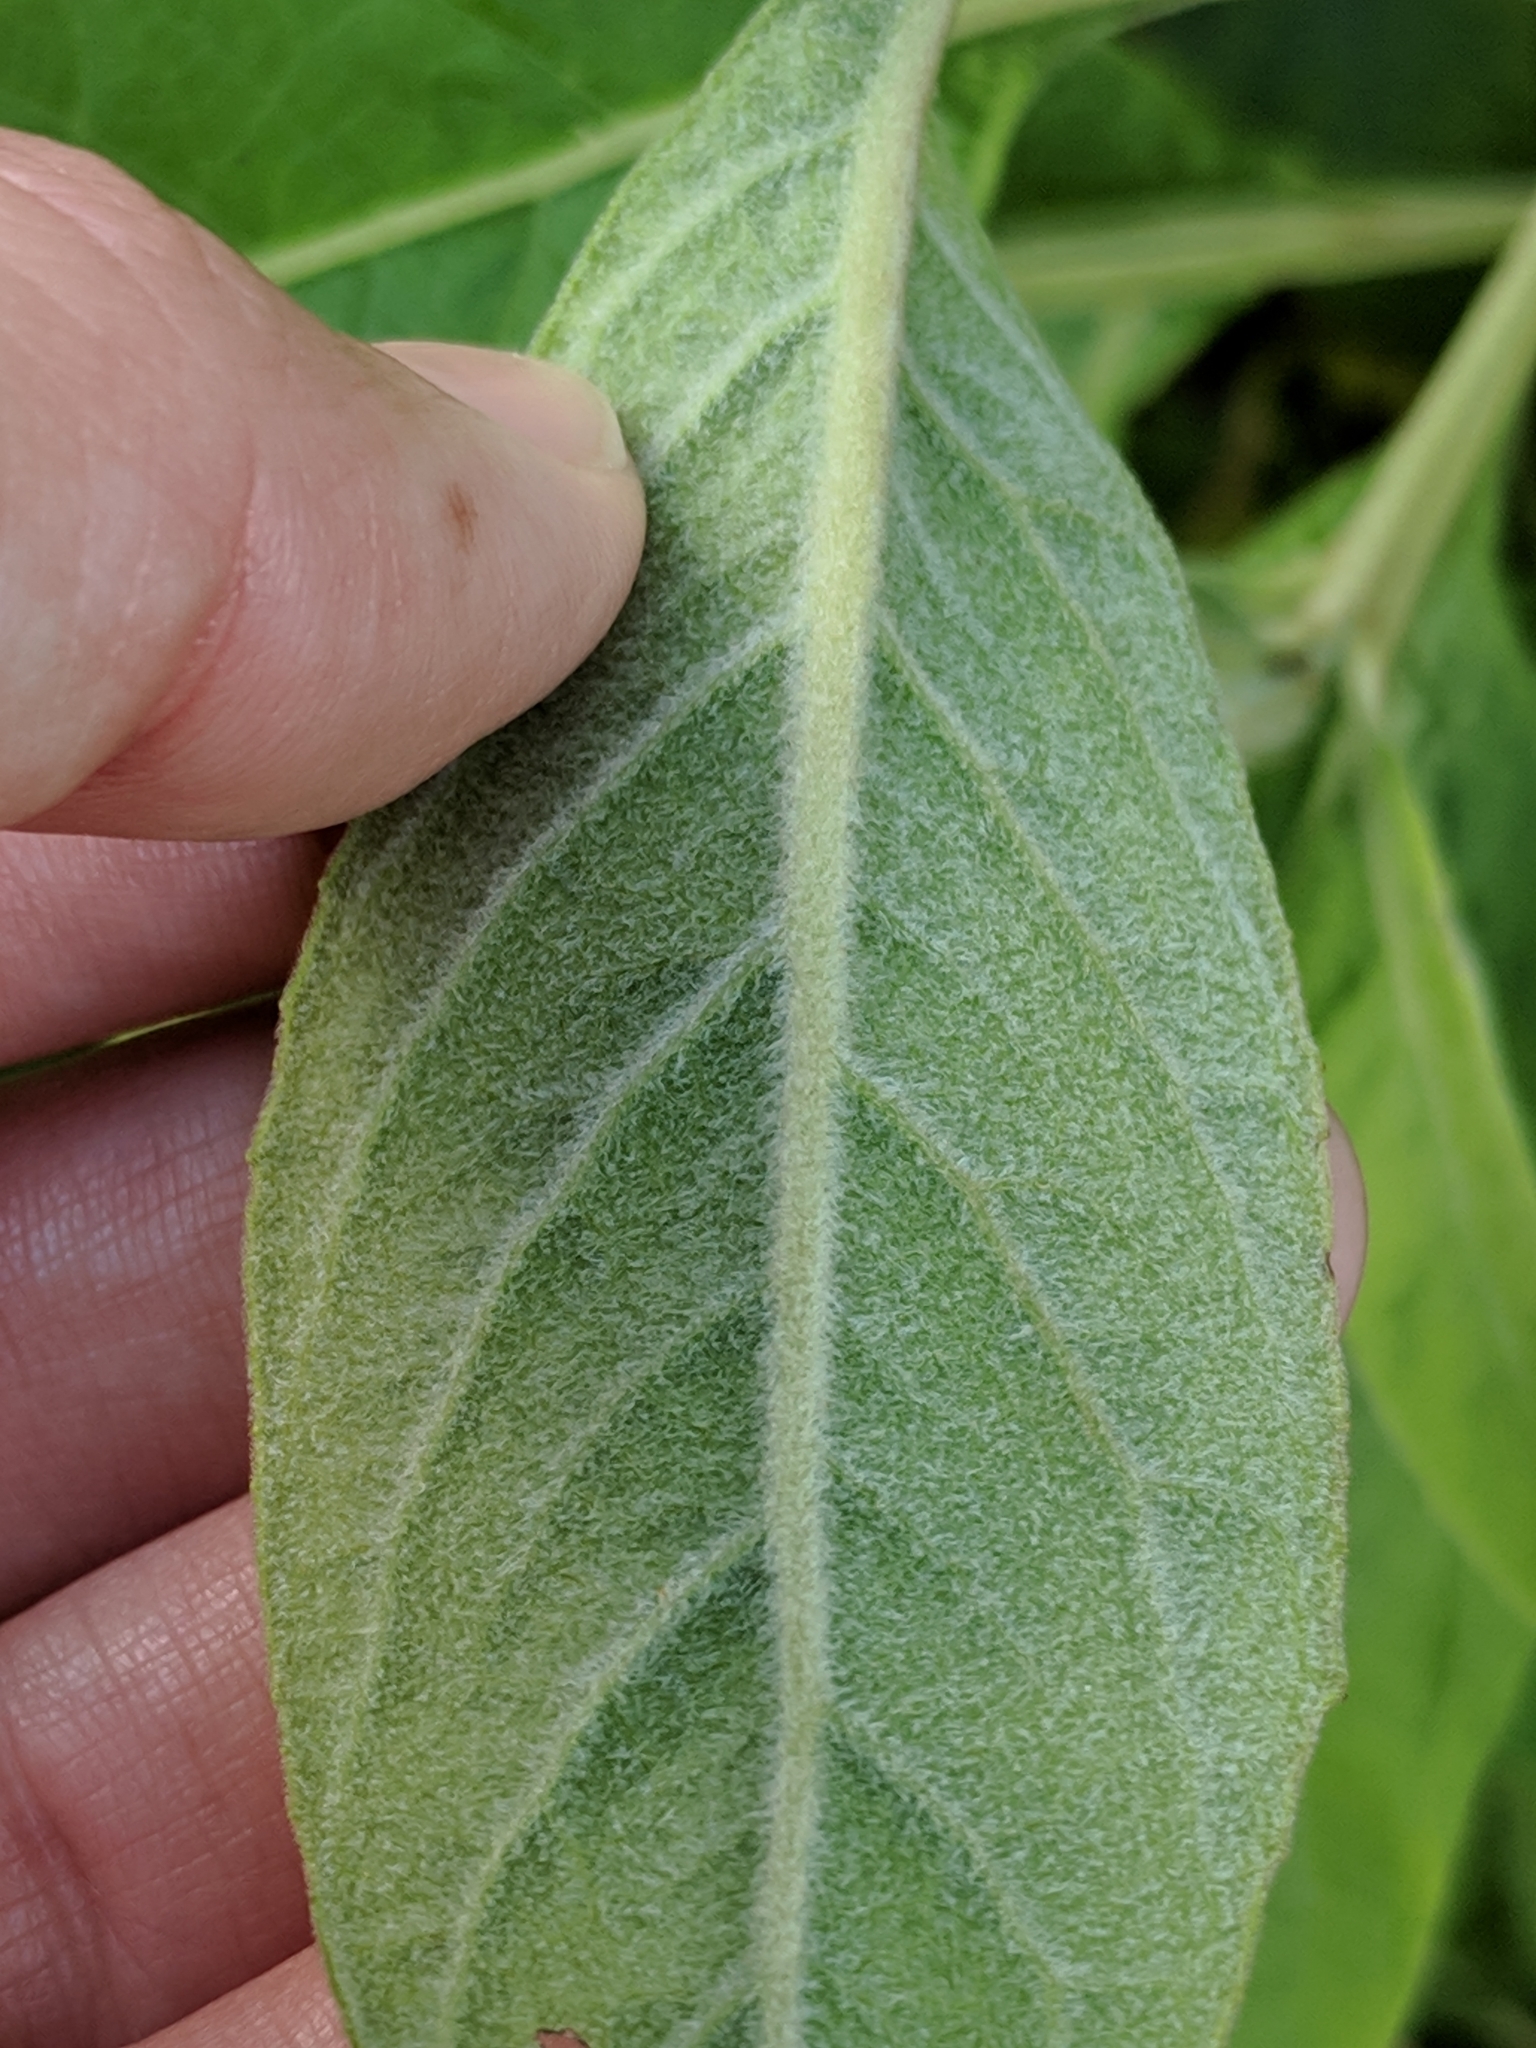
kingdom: Plantae
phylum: Tracheophyta
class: Magnoliopsida
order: Asterales
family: Asteraceae
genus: Pluchea
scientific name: Pluchea carolinensis
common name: Marsh fleabane
